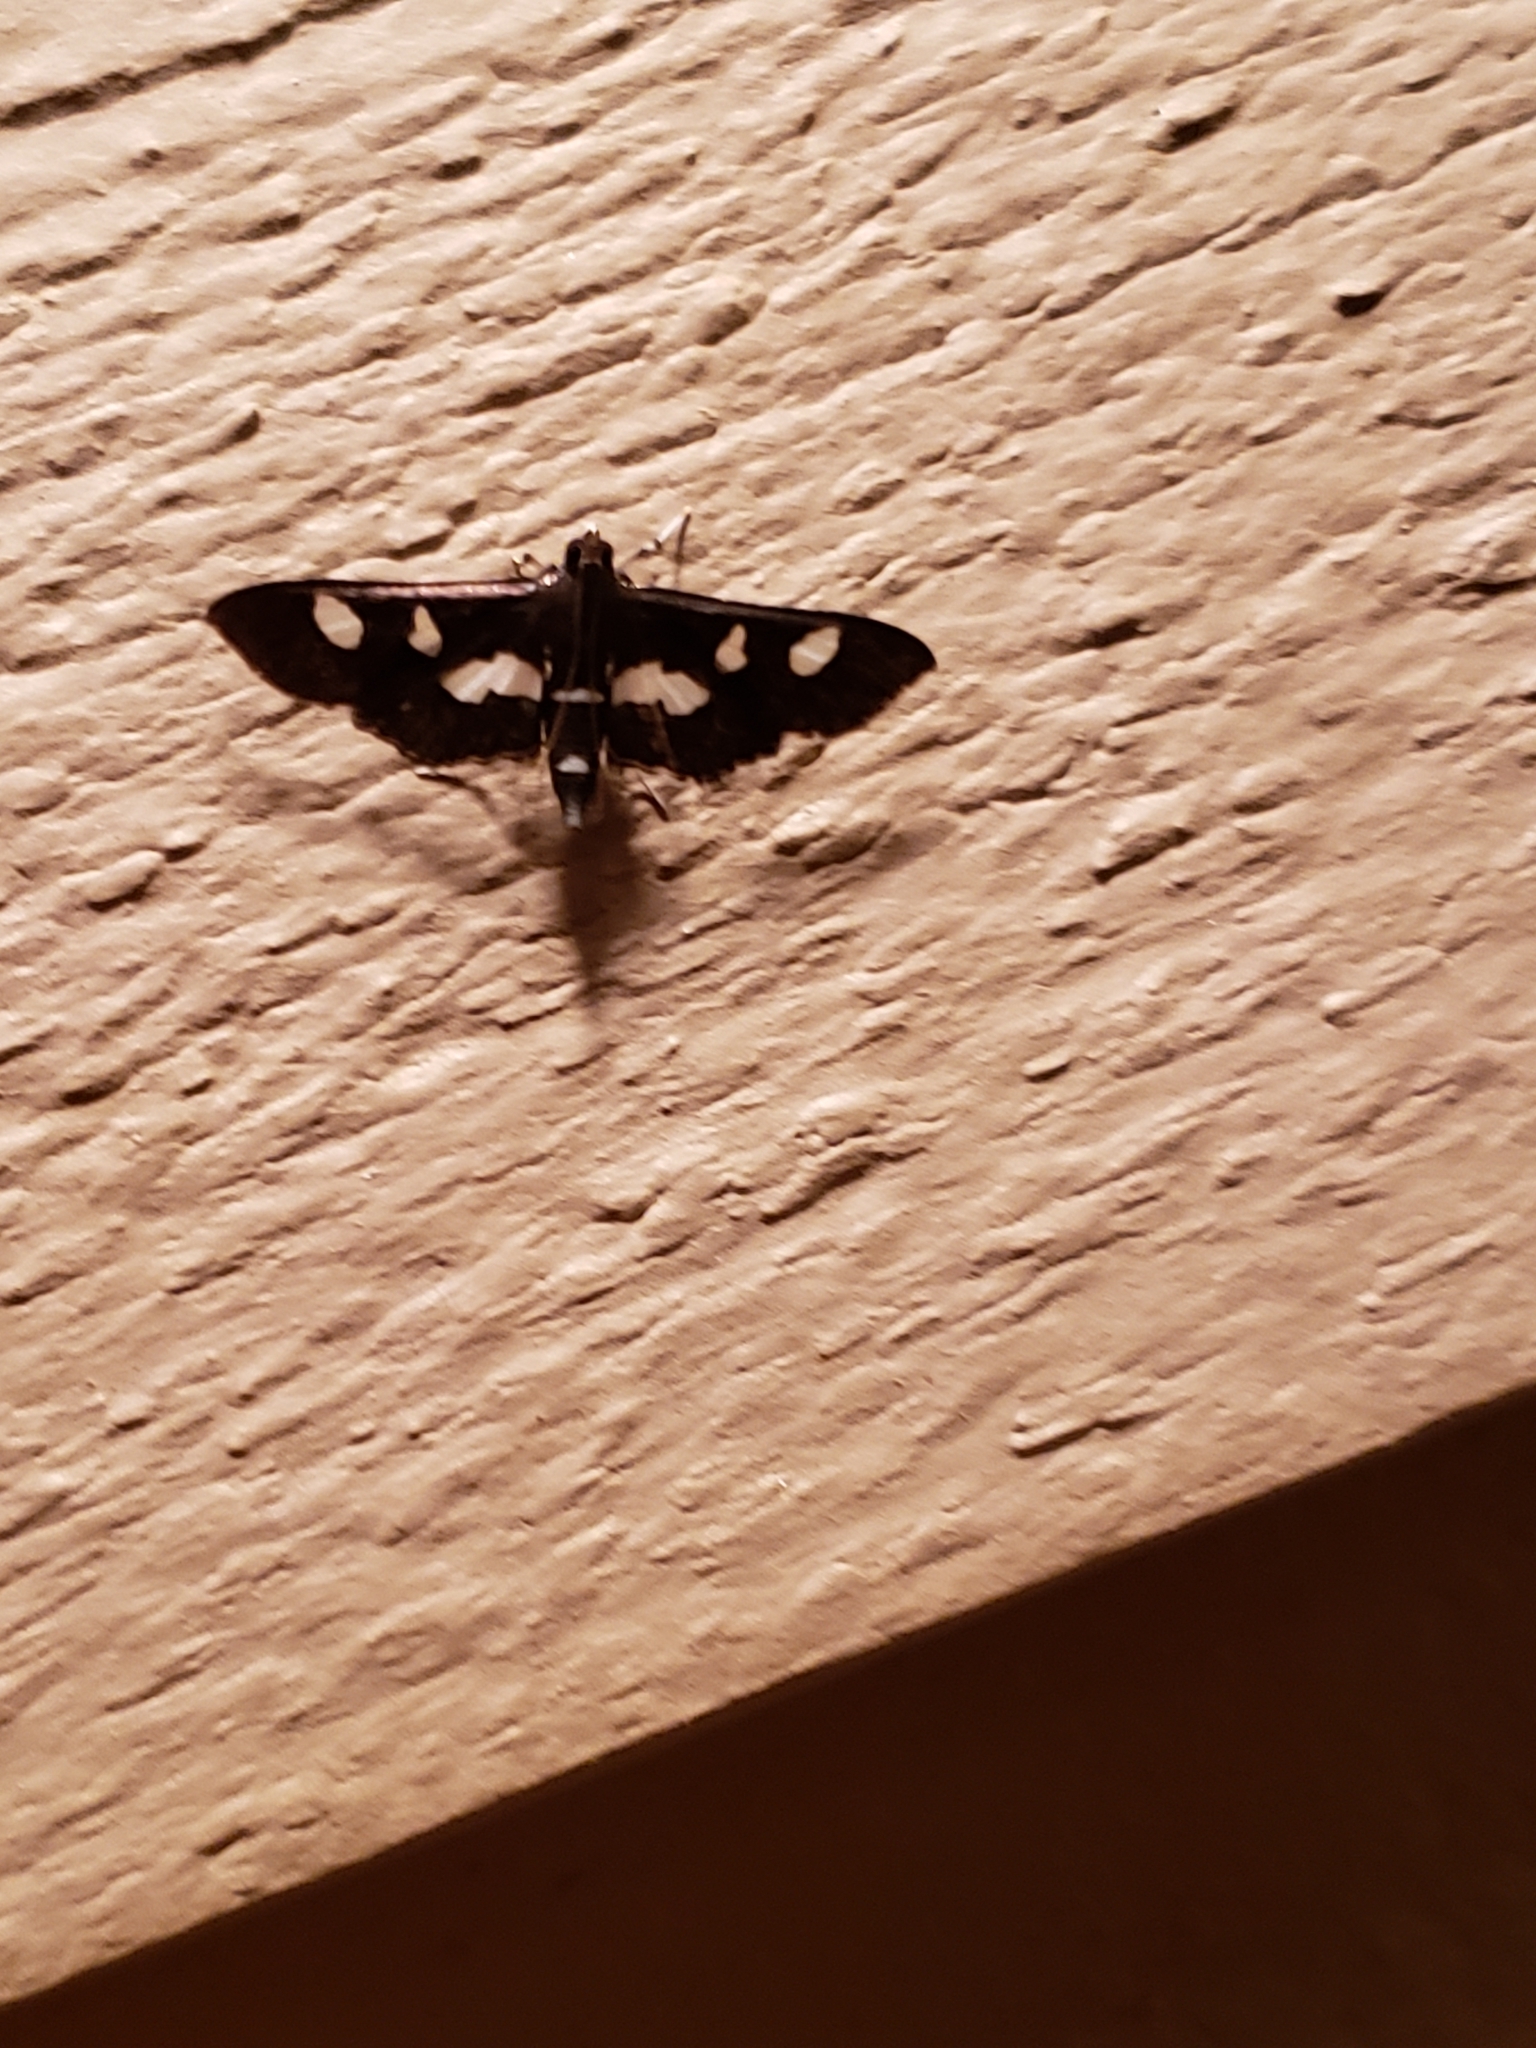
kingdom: Animalia
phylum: Arthropoda
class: Insecta
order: Lepidoptera
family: Crambidae
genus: Desmia
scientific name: Desmia
